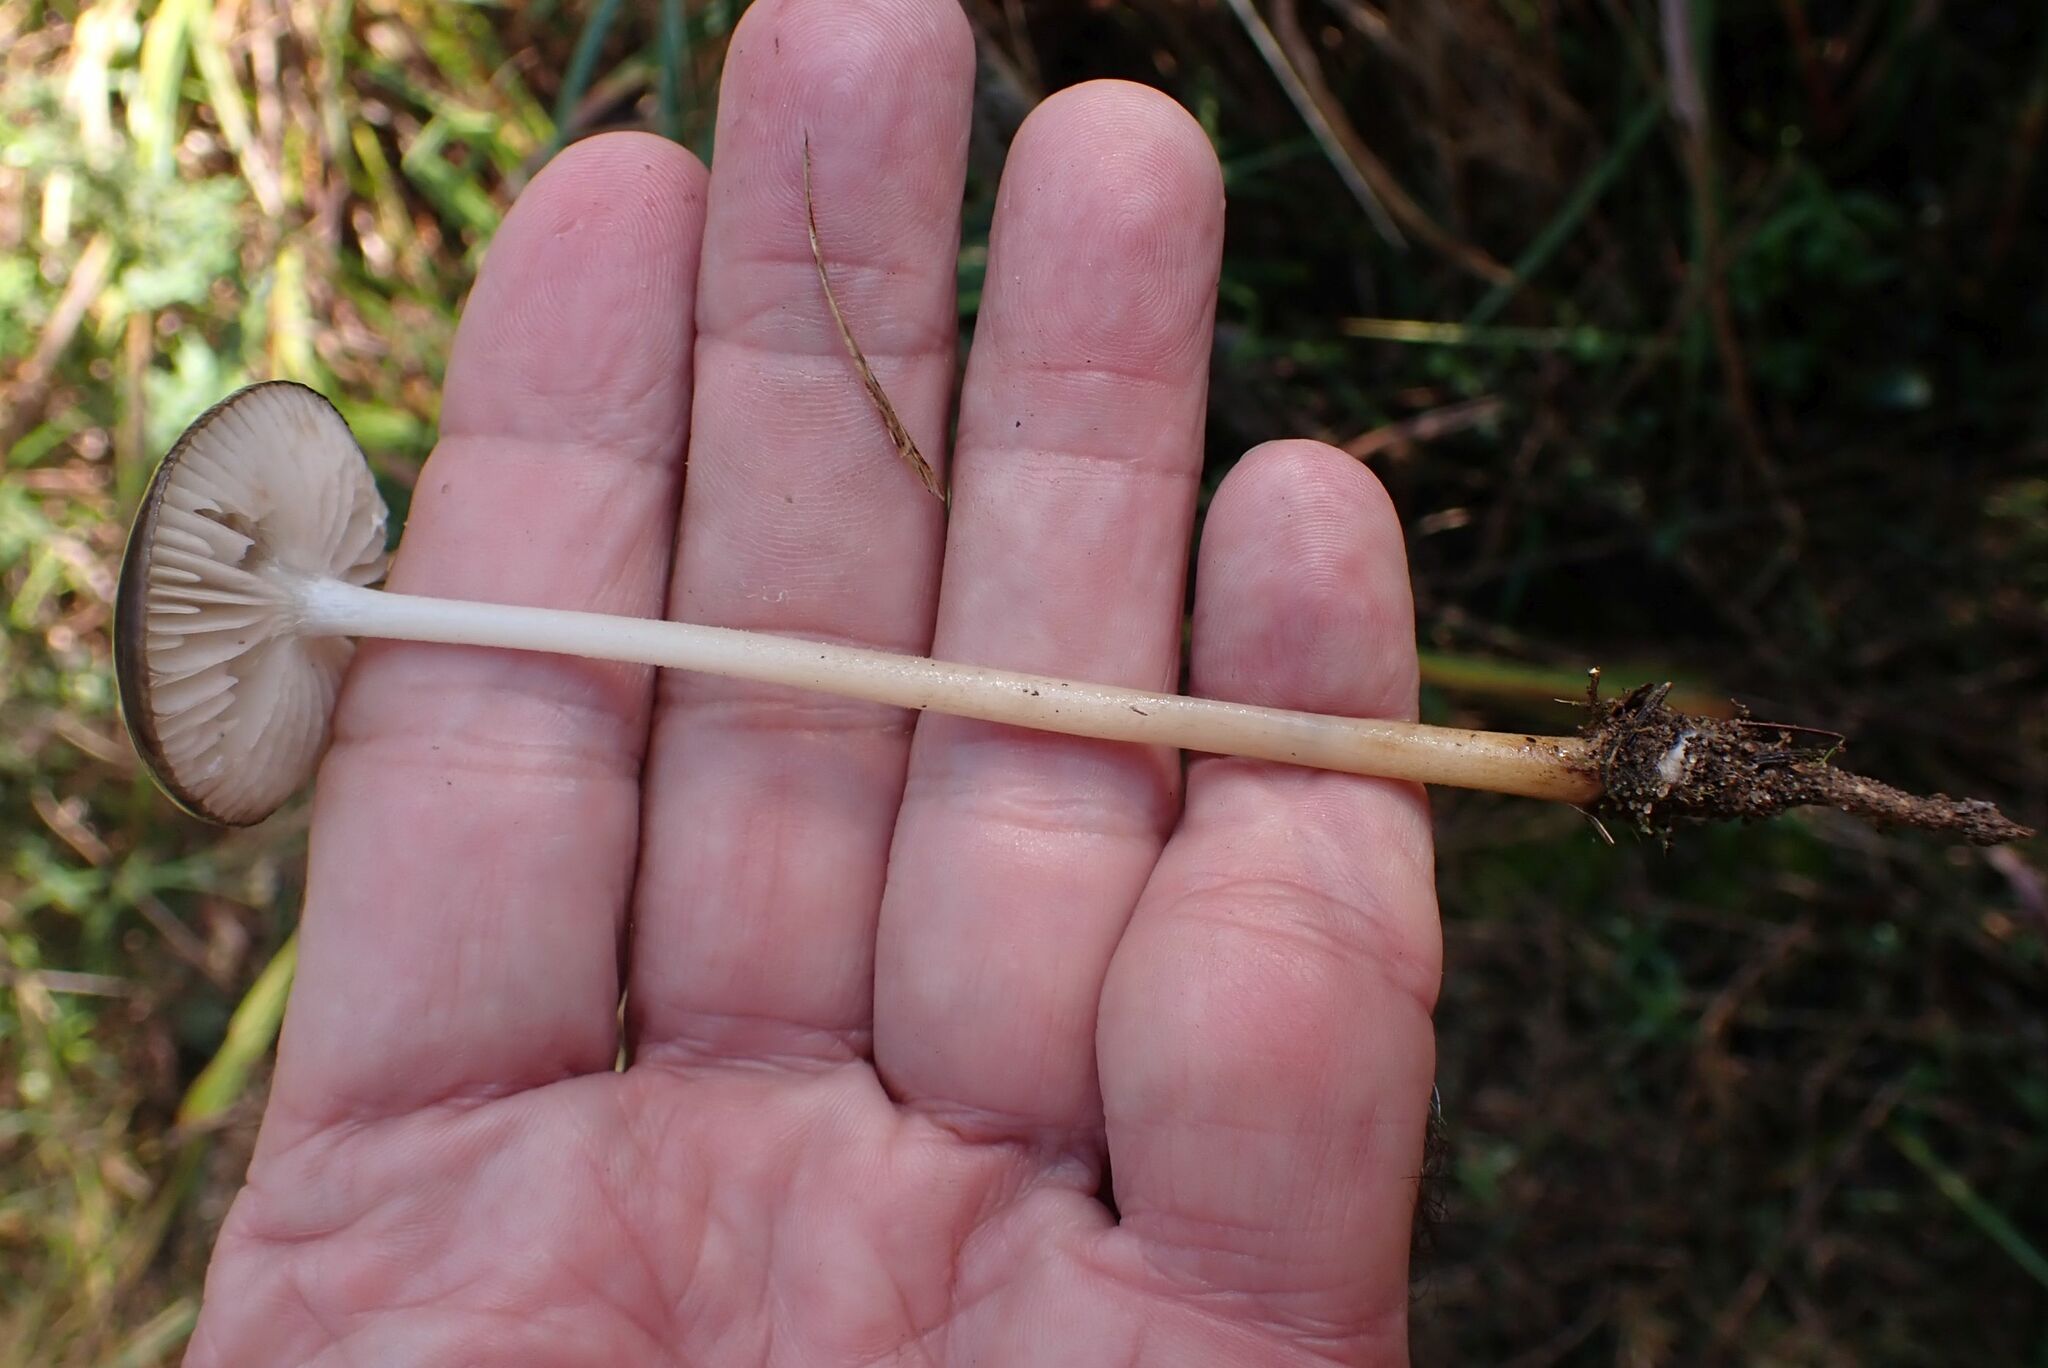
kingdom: Fungi
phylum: Basidiomycota
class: Agaricomycetes
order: Agaricales
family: Physalacriaceae
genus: Hymenopellis
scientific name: Hymenopellis radicata
